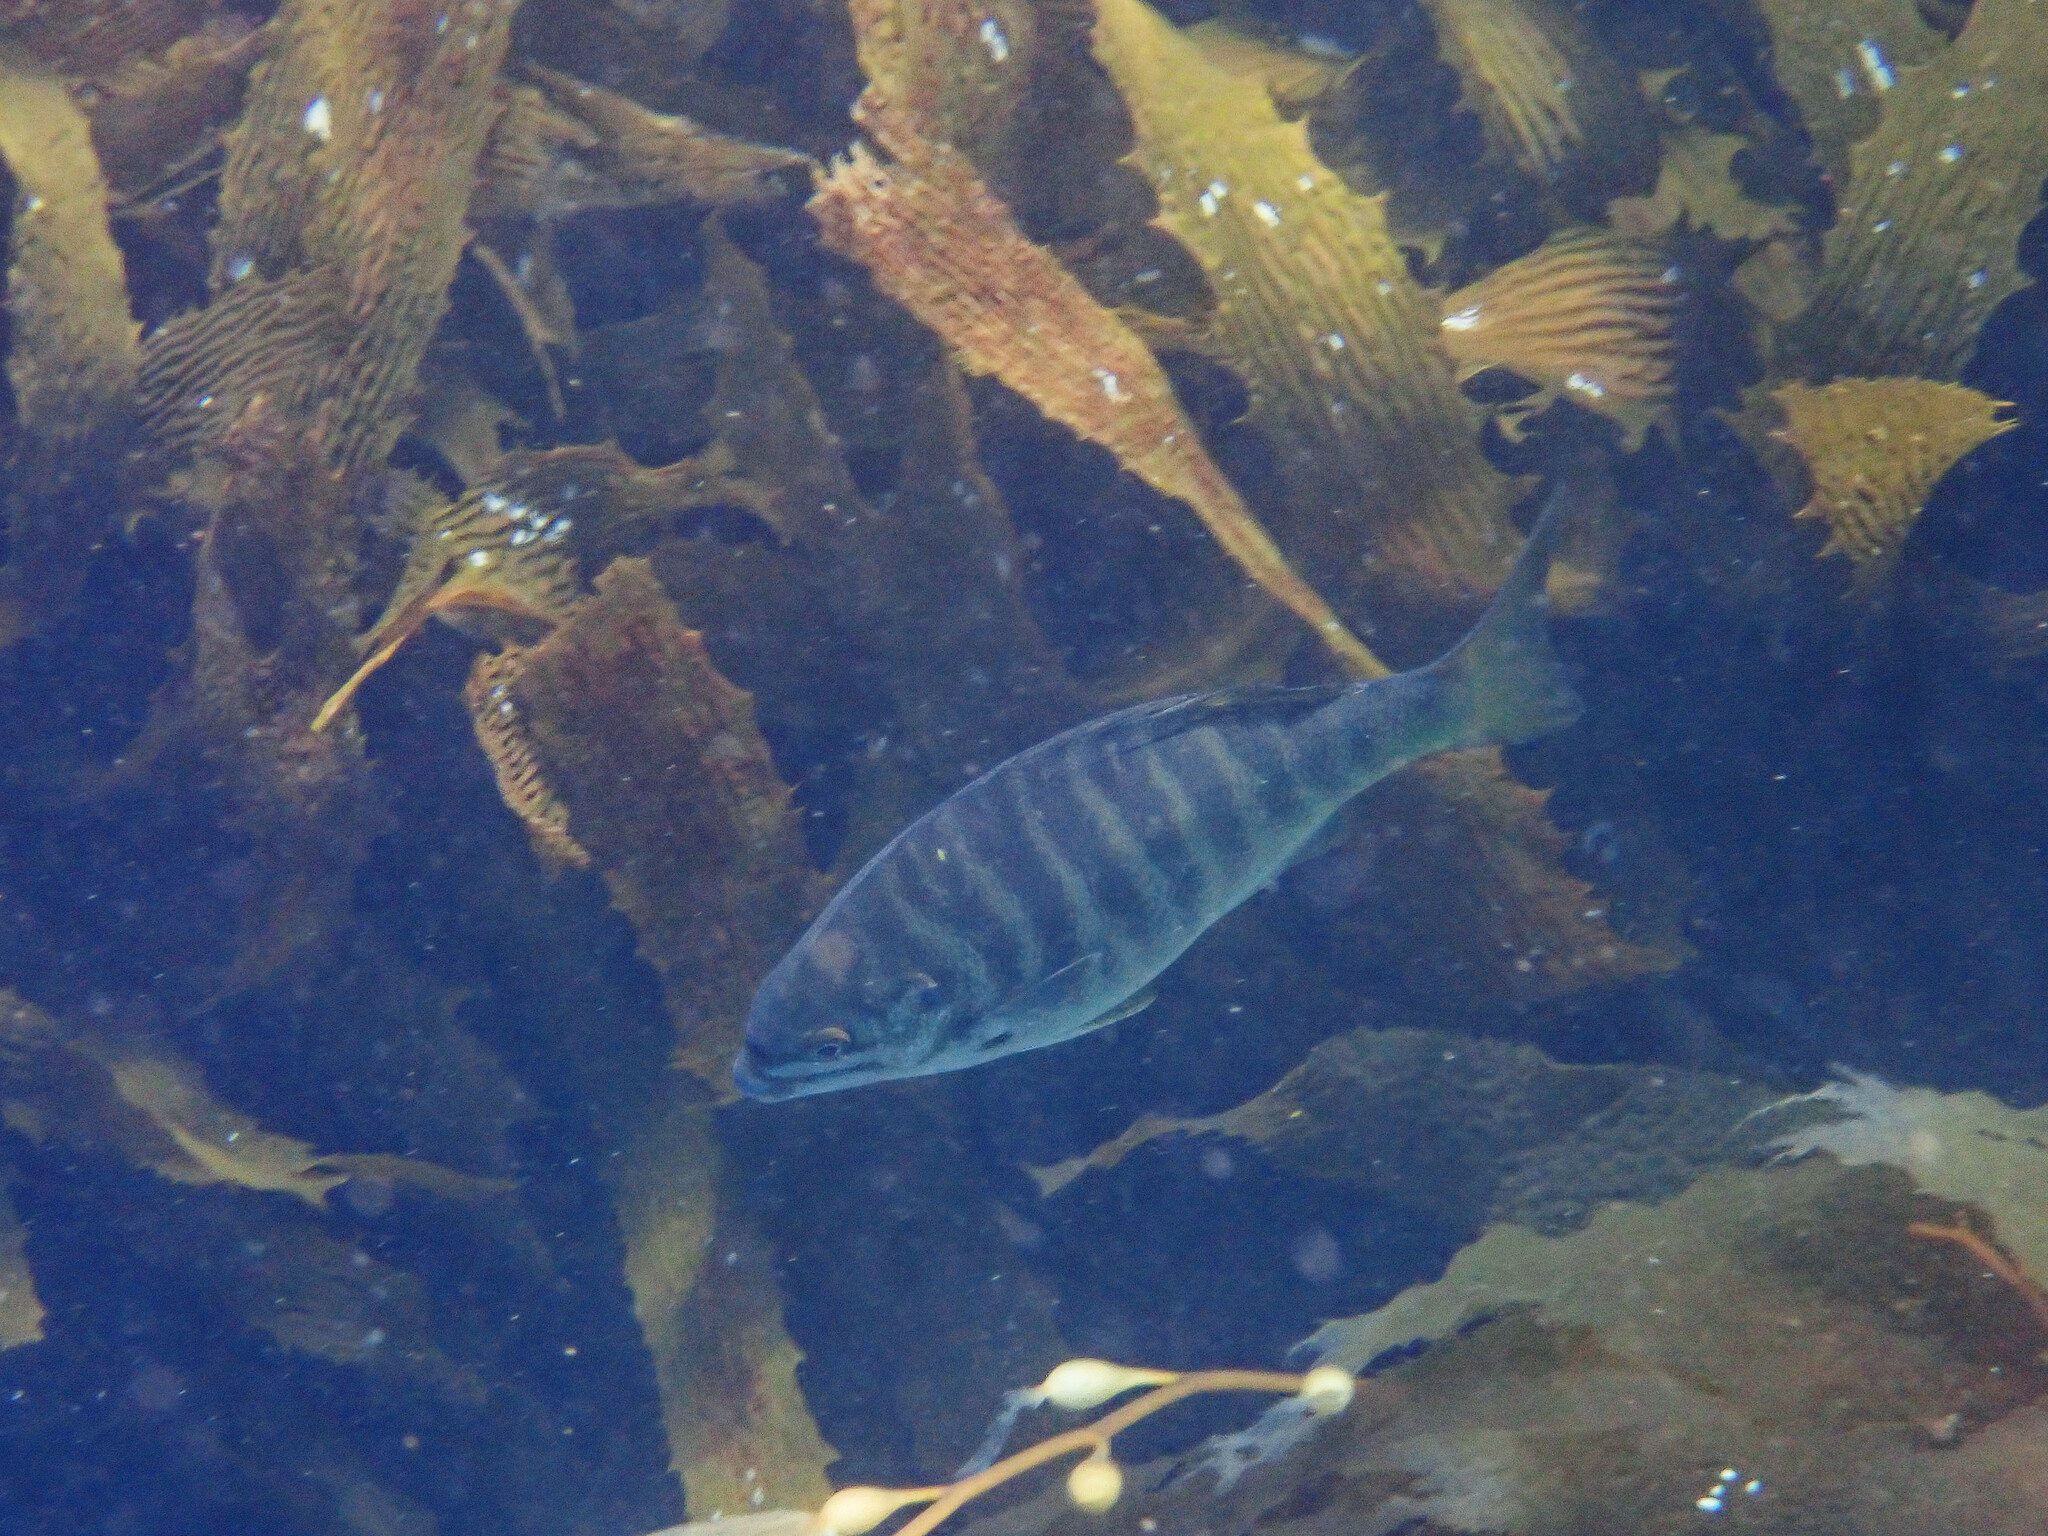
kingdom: Animalia
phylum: Chordata
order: Perciformes
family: Kyphosidae
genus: Kyphosus
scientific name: Kyphosus azureus
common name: Perch
